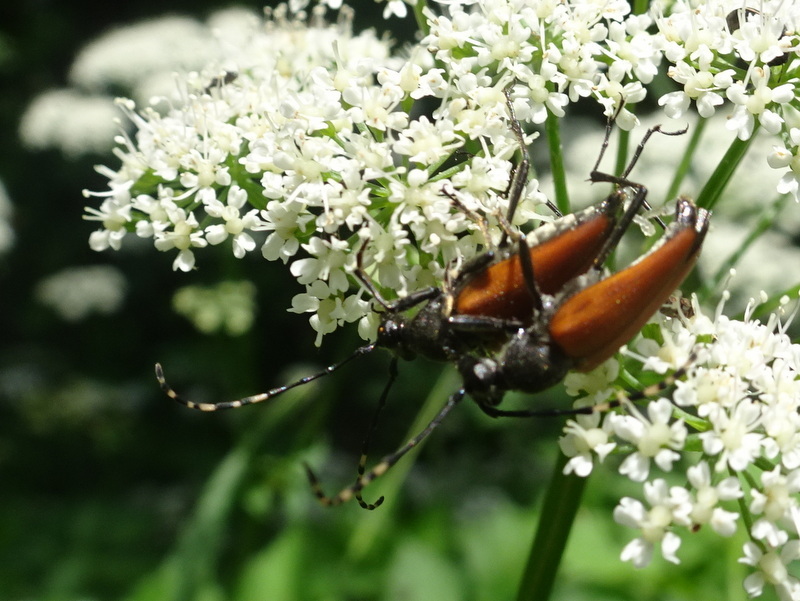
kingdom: Animalia
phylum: Arthropoda
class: Insecta
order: Coleoptera
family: Cerambycidae
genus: Brachyleptura
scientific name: Brachyleptura rubrica
